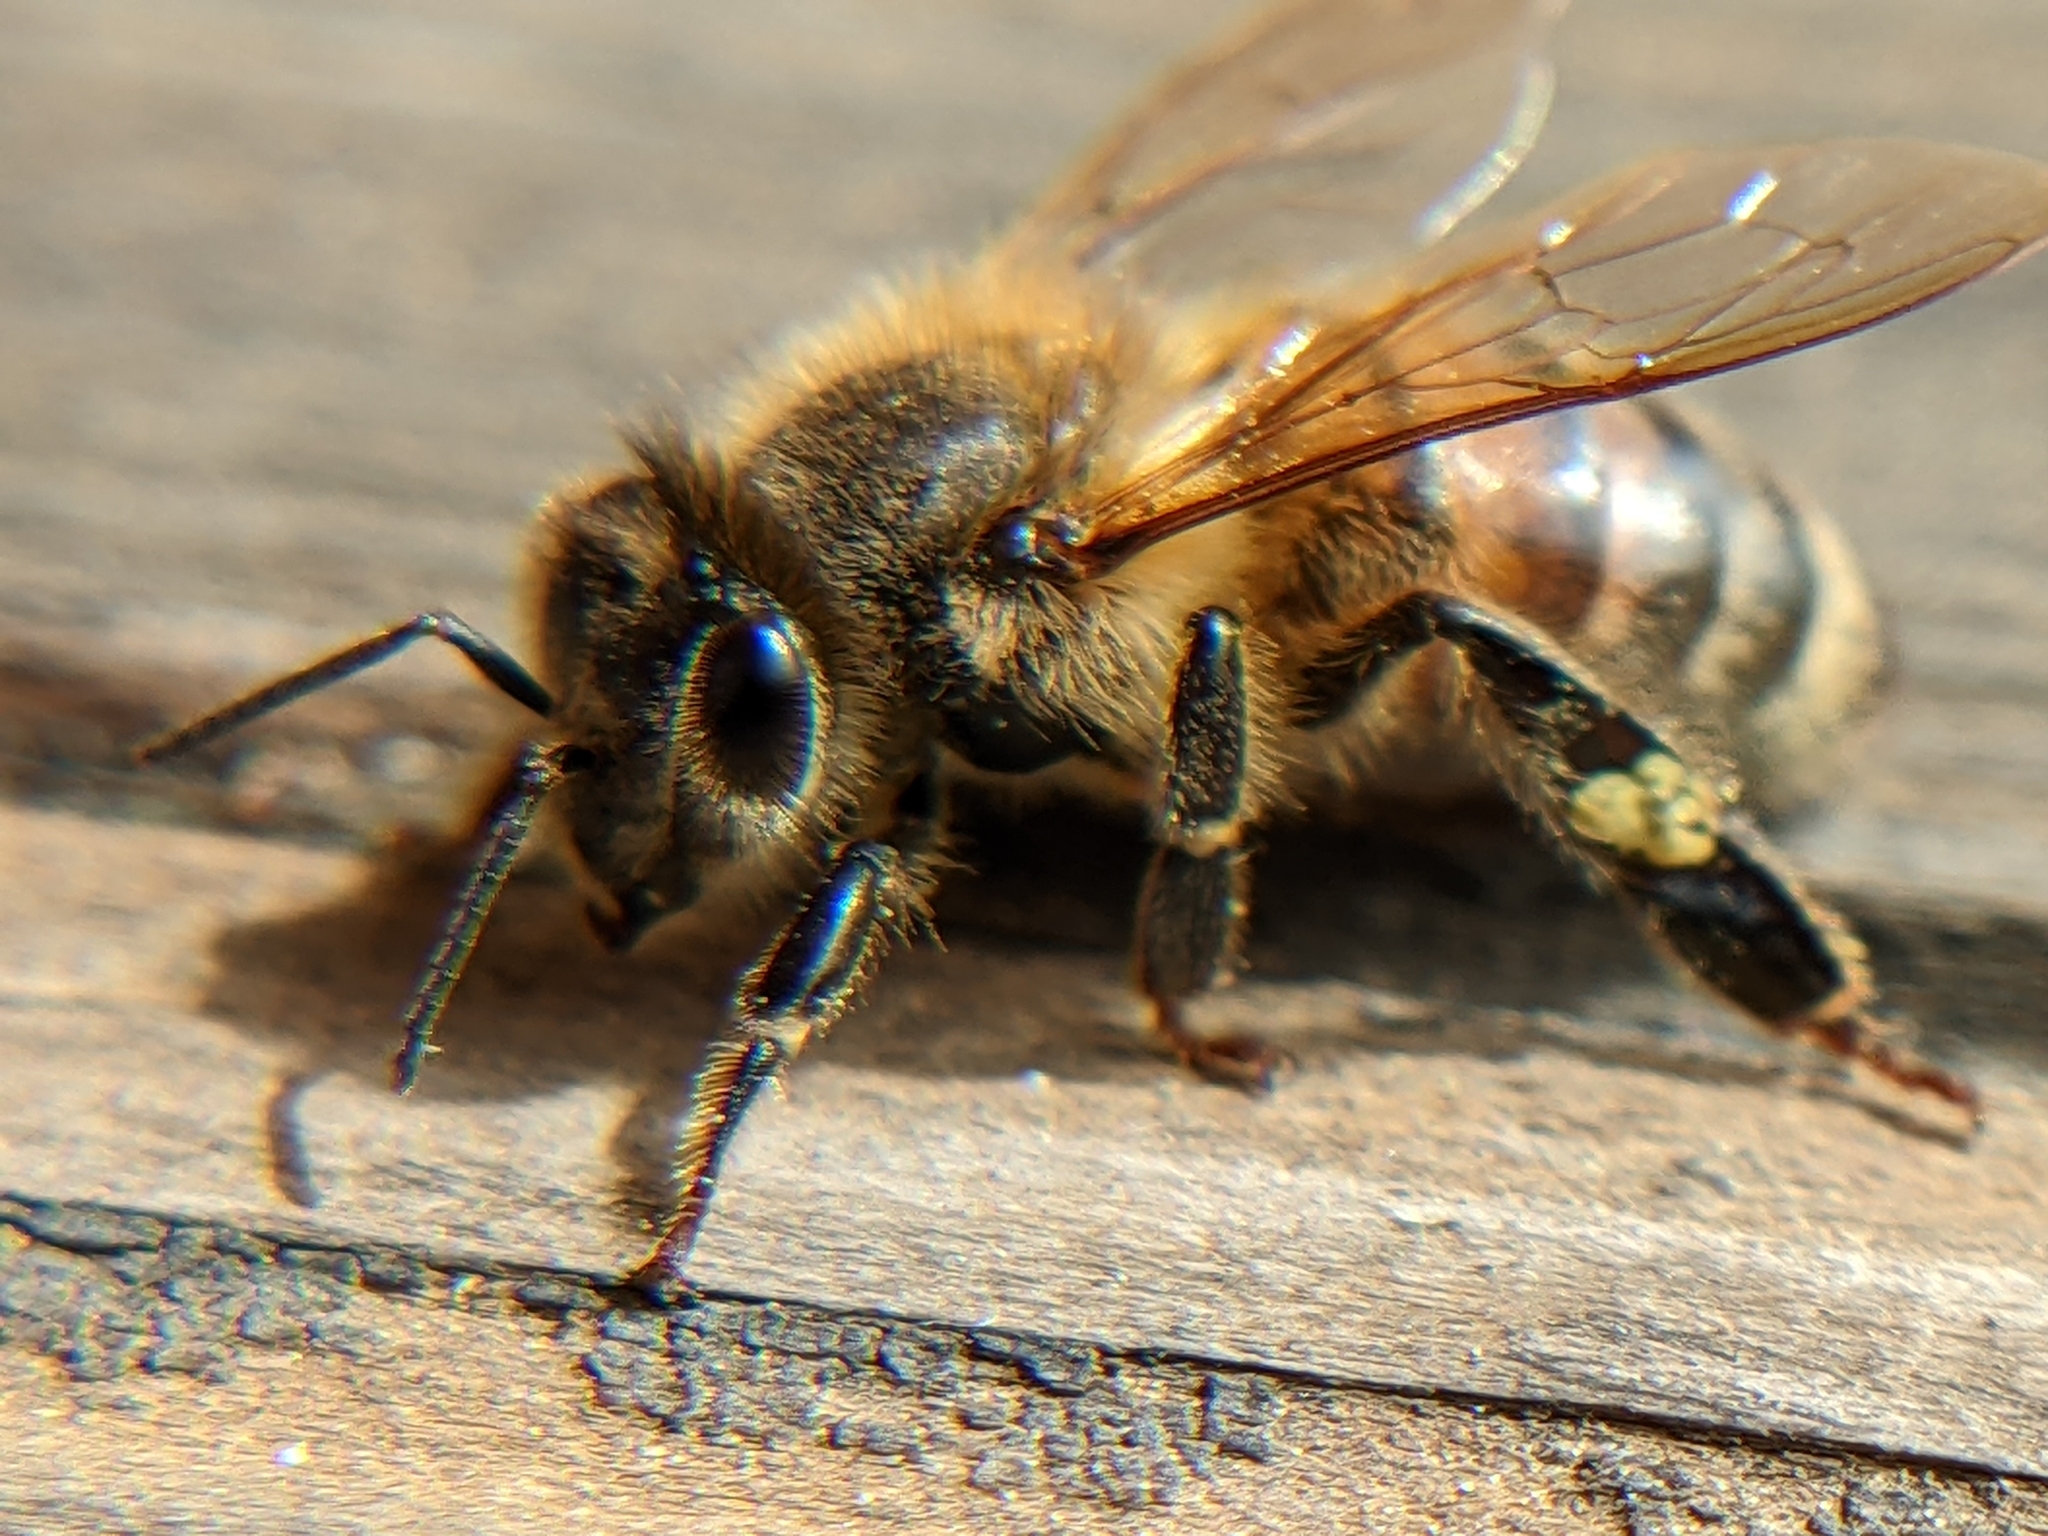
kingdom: Animalia
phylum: Arthropoda
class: Insecta
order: Hymenoptera
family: Apidae
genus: Apis
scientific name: Apis mellifera
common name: Honey bee
